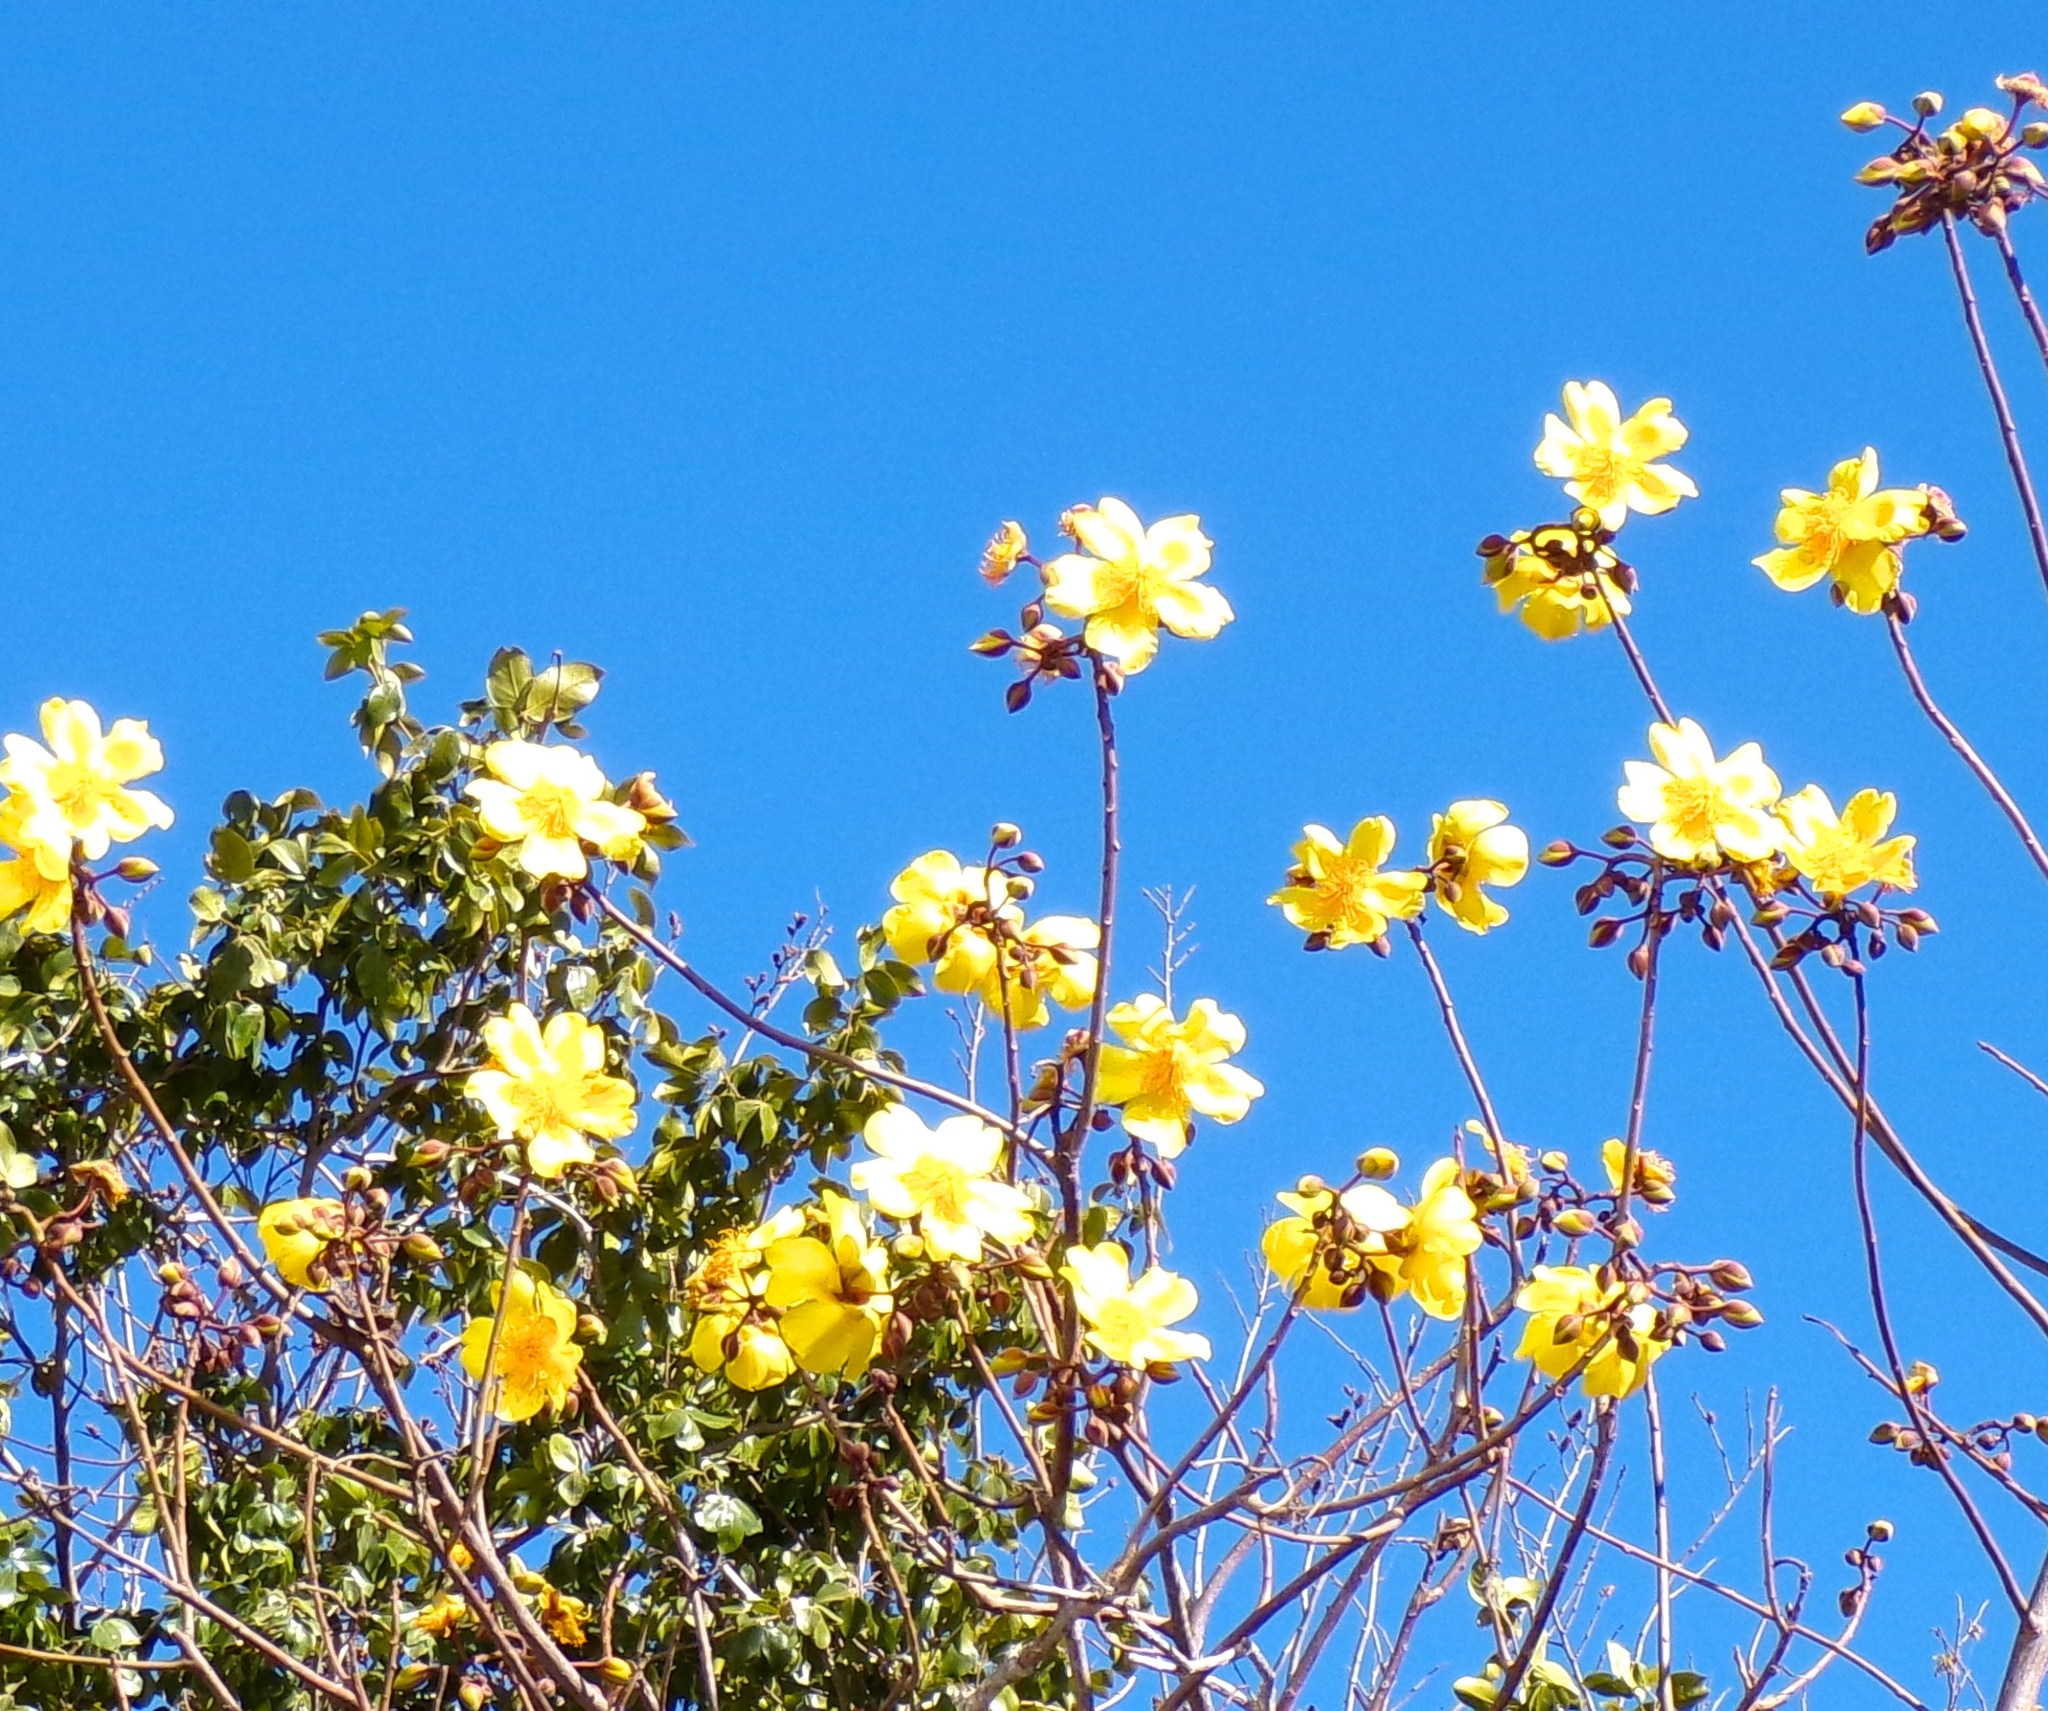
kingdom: Plantae
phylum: Tracheophyta
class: Magnoliopsida
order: Malvales
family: Cochlospermaceae
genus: Cochlospermum
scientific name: Cochlospermum vitifolium
